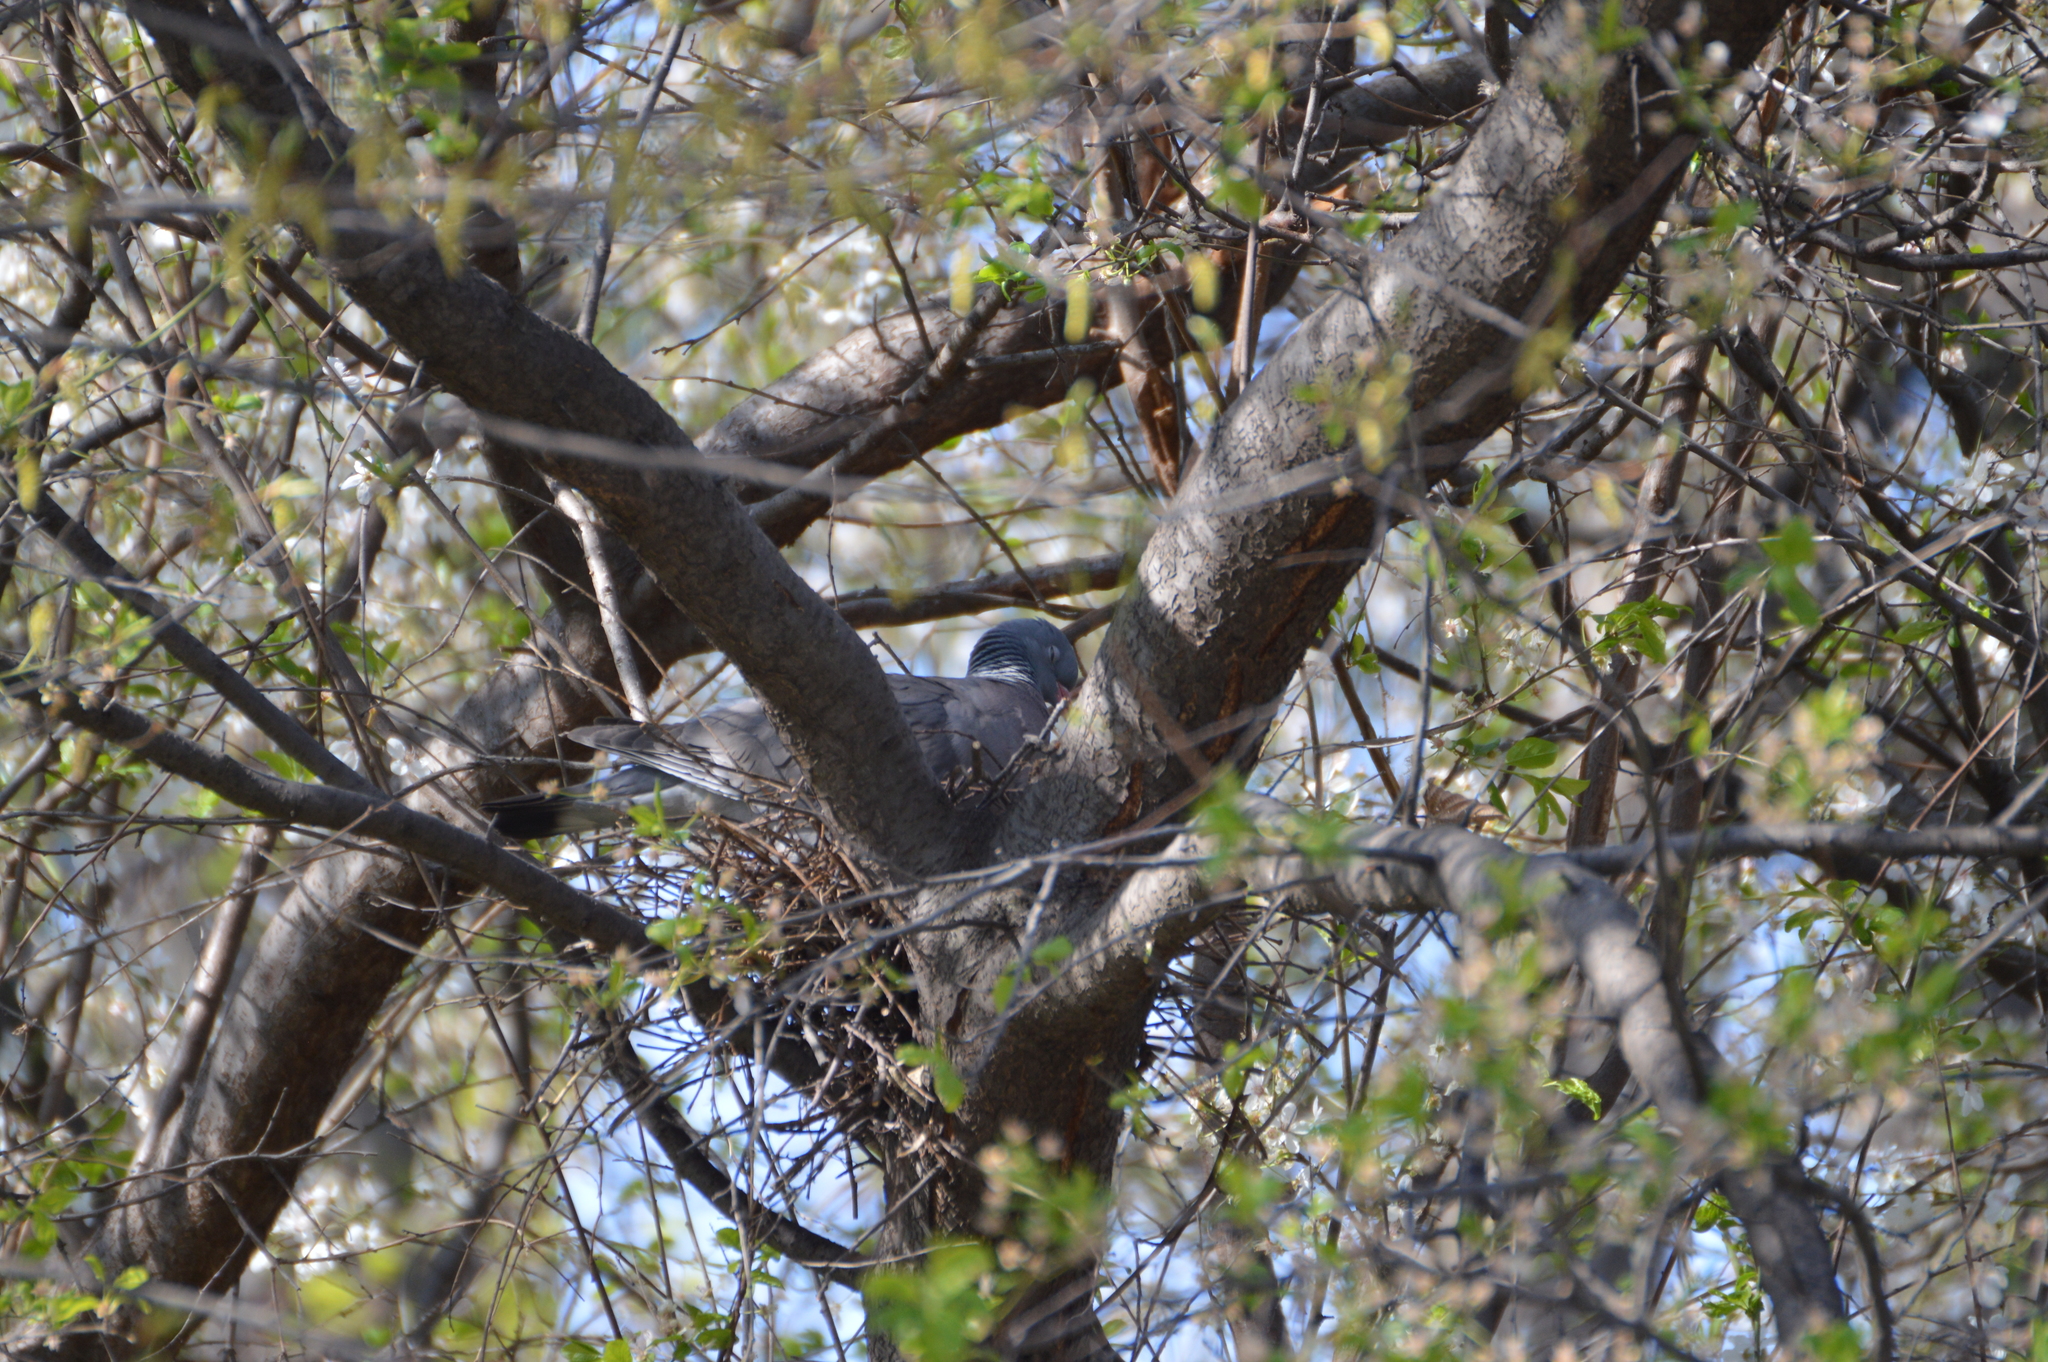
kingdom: Animalia
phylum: Chordata
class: Aves
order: Columbiformes
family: Columbidae
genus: Columba
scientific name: Columba palumbus
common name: Common wood pigeon
